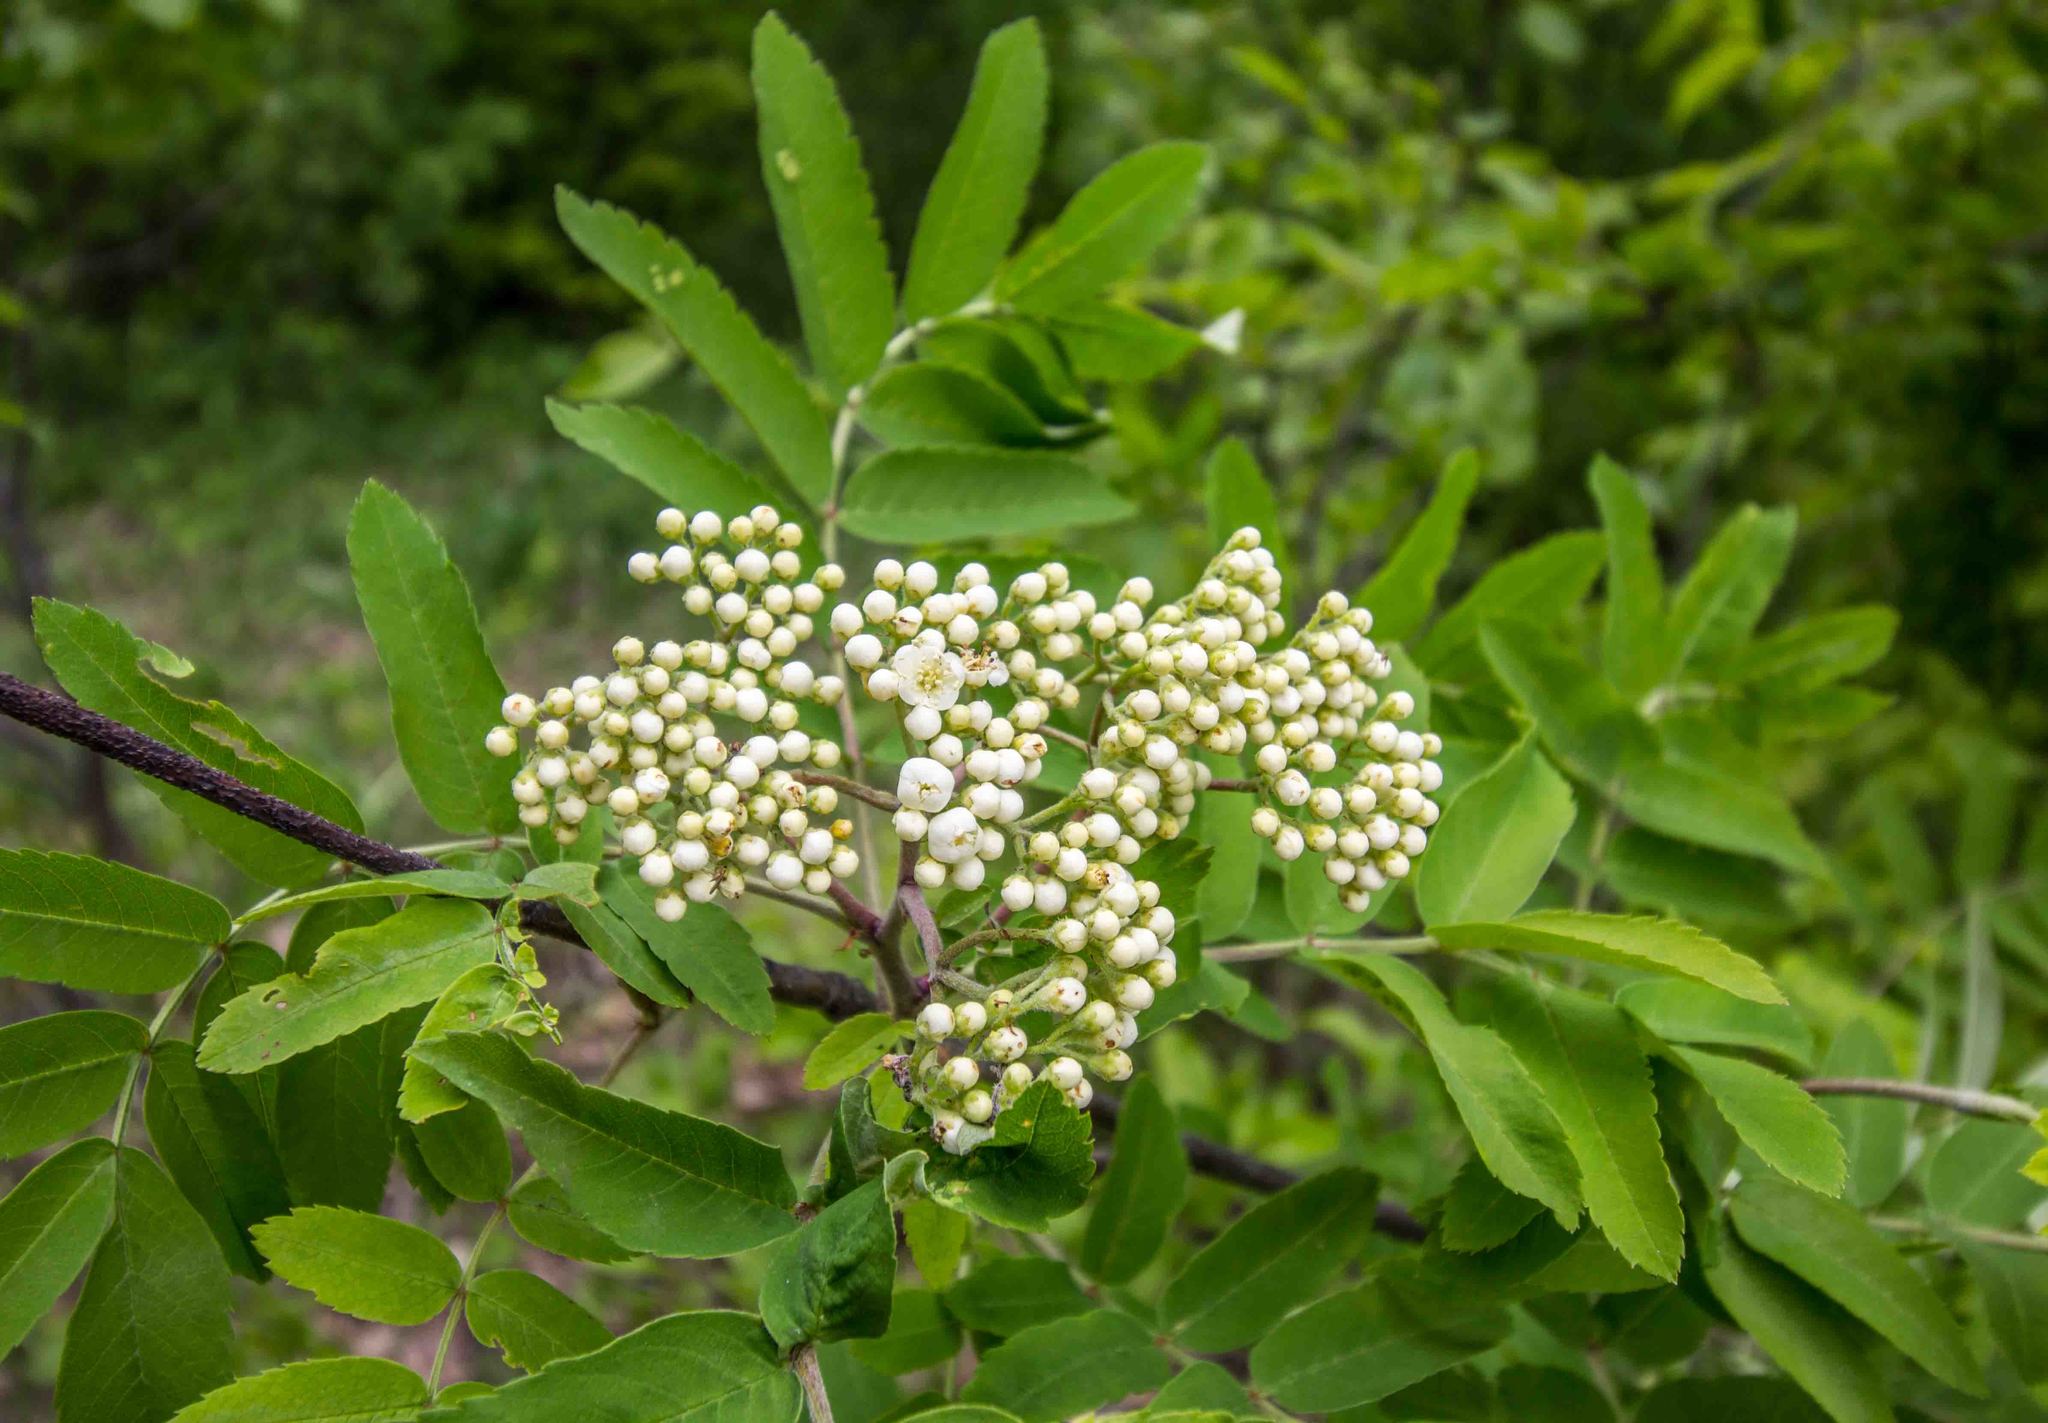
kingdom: Plantae
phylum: Tracheophyta
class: Magnoliopsida
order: Rosales
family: Rosaceae
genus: Sorbus
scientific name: Sorbus aucuparia
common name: Rowan
